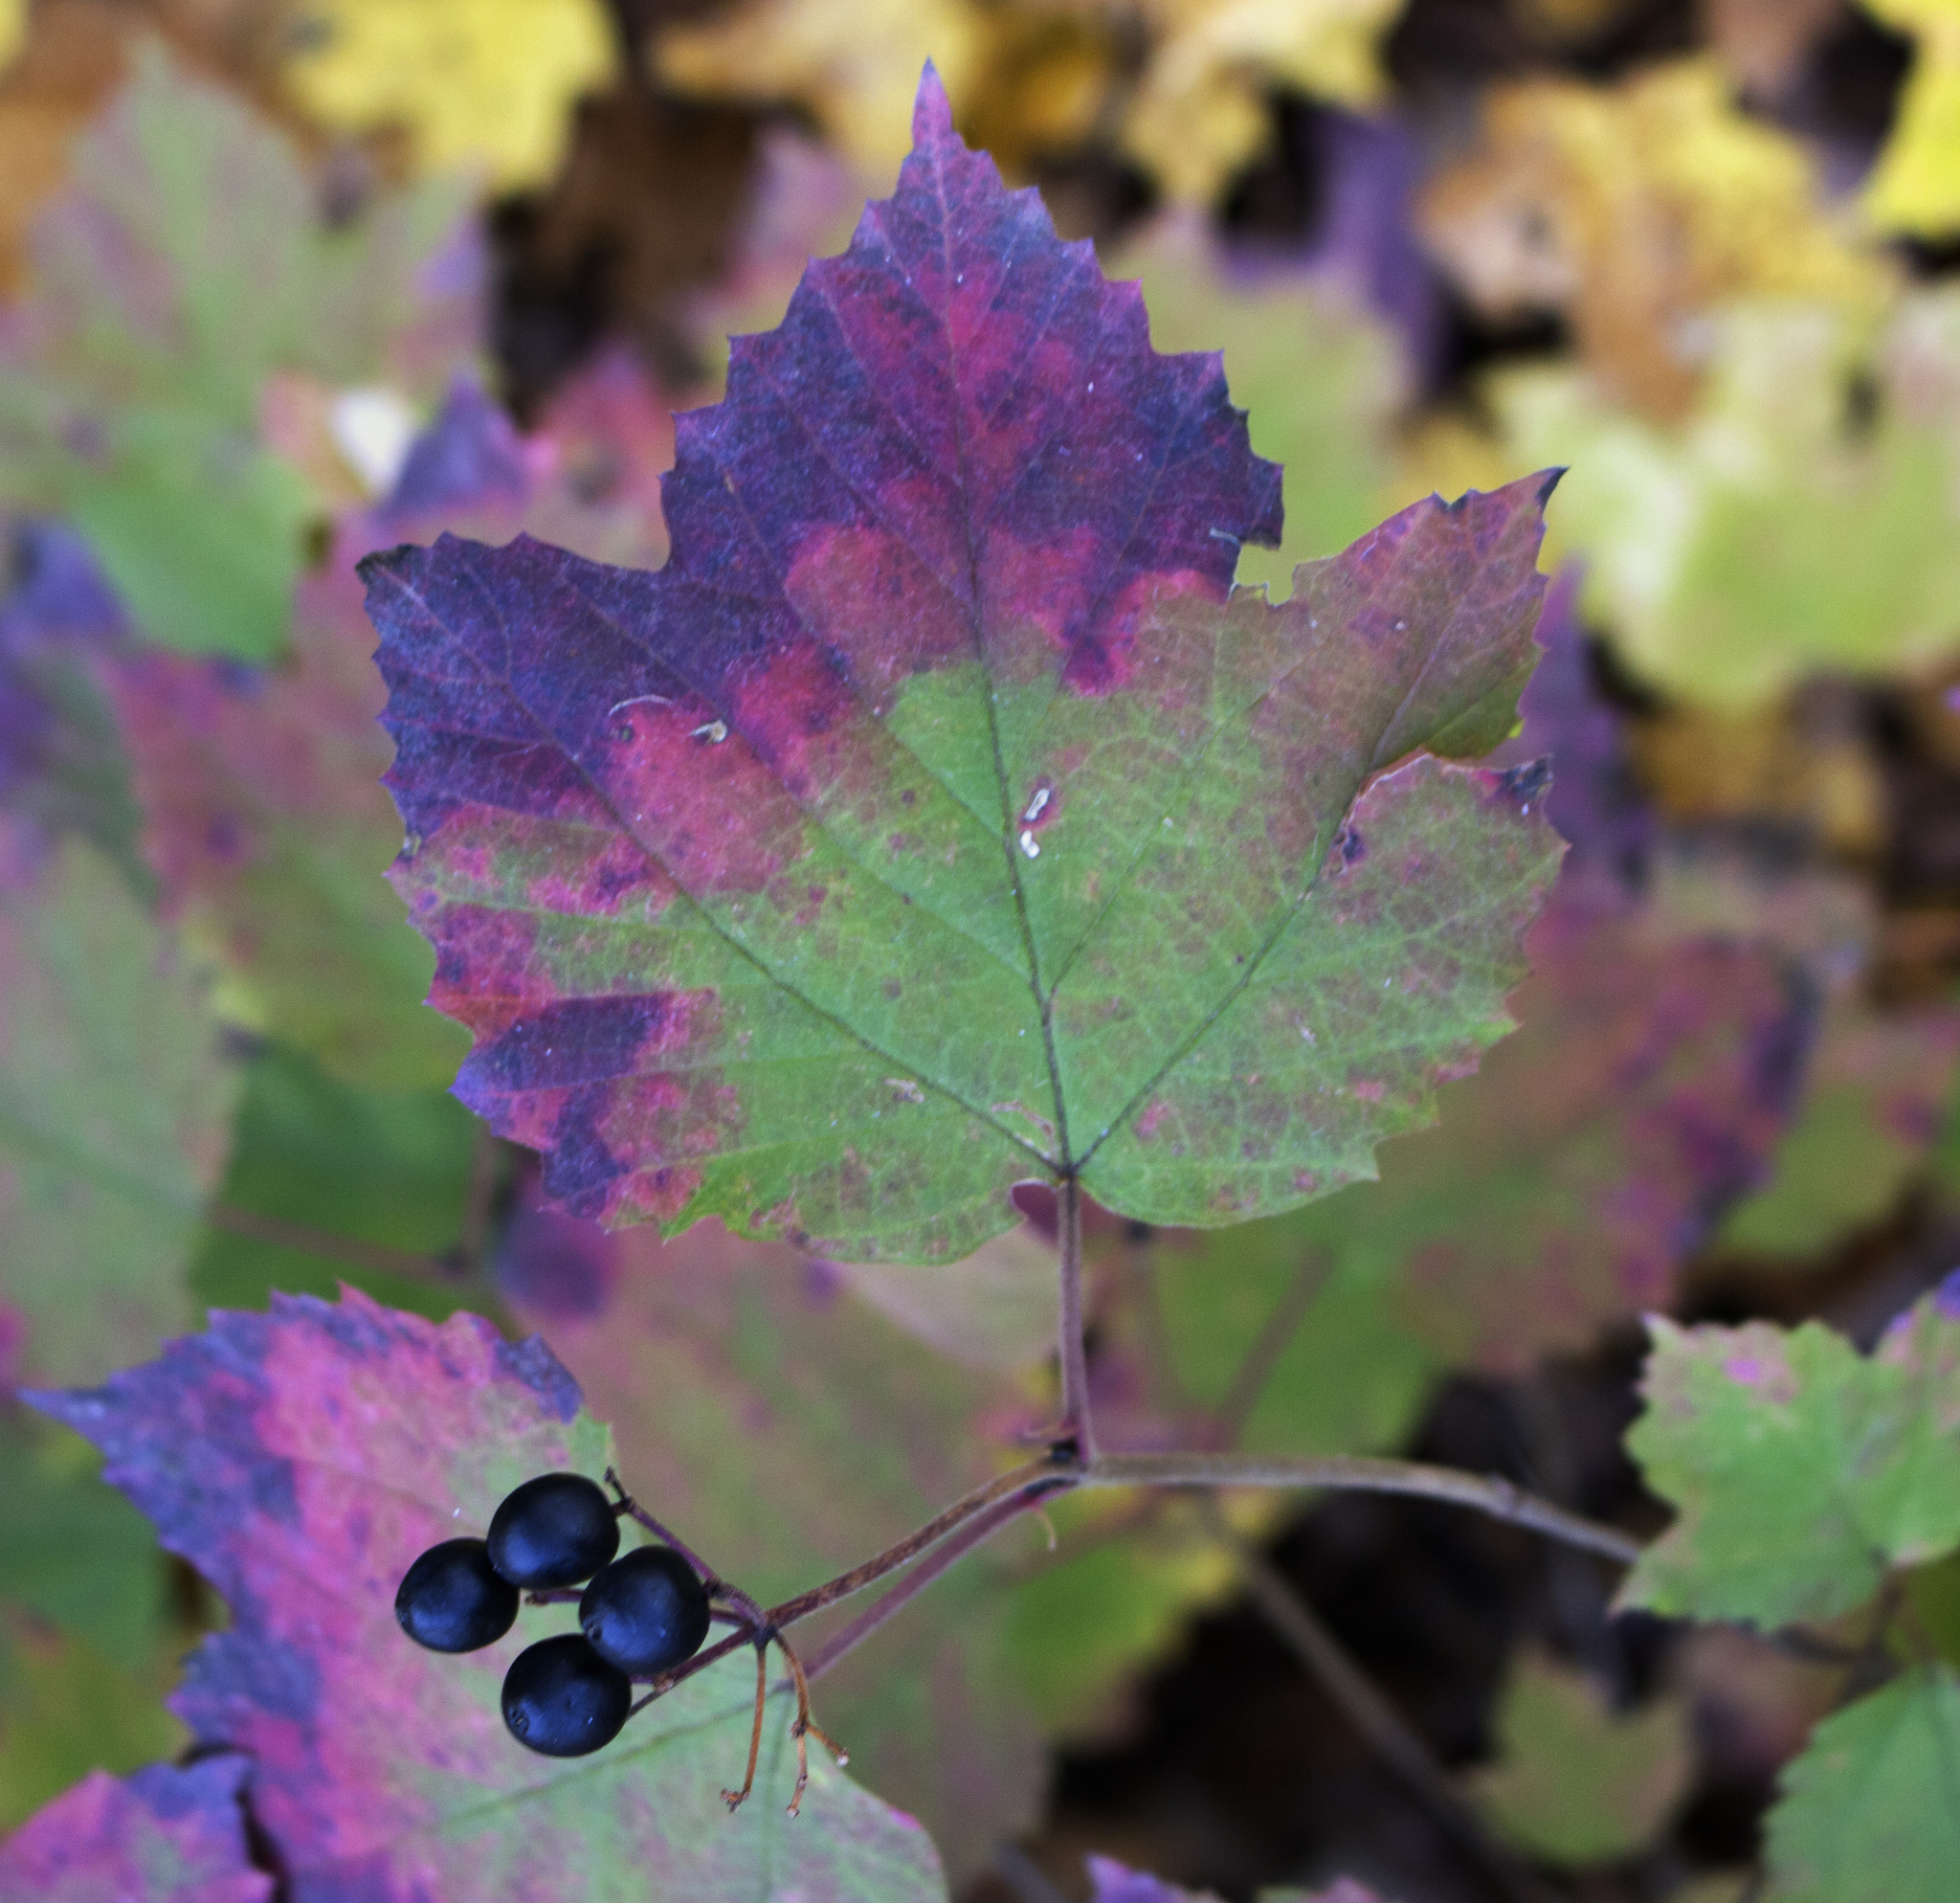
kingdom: Plantae
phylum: Tracheophyta
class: Magnoliopsida
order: Dipsacales
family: Viburnaceae
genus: Viburnum
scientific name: Viburnum acerifolium
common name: Dockmackie
